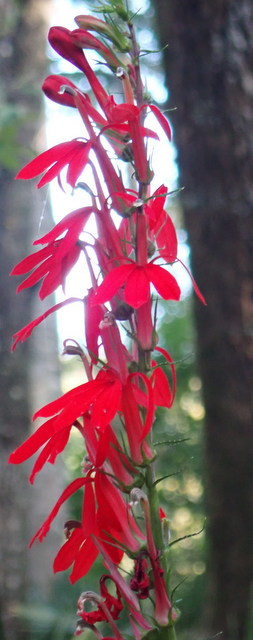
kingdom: Plantae
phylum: Tracheophyta
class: Magnoliopsida
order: Asterales
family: Campanulaceae
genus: Lobelia
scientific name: Lobelia cardinalis
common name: Cardinal flower
